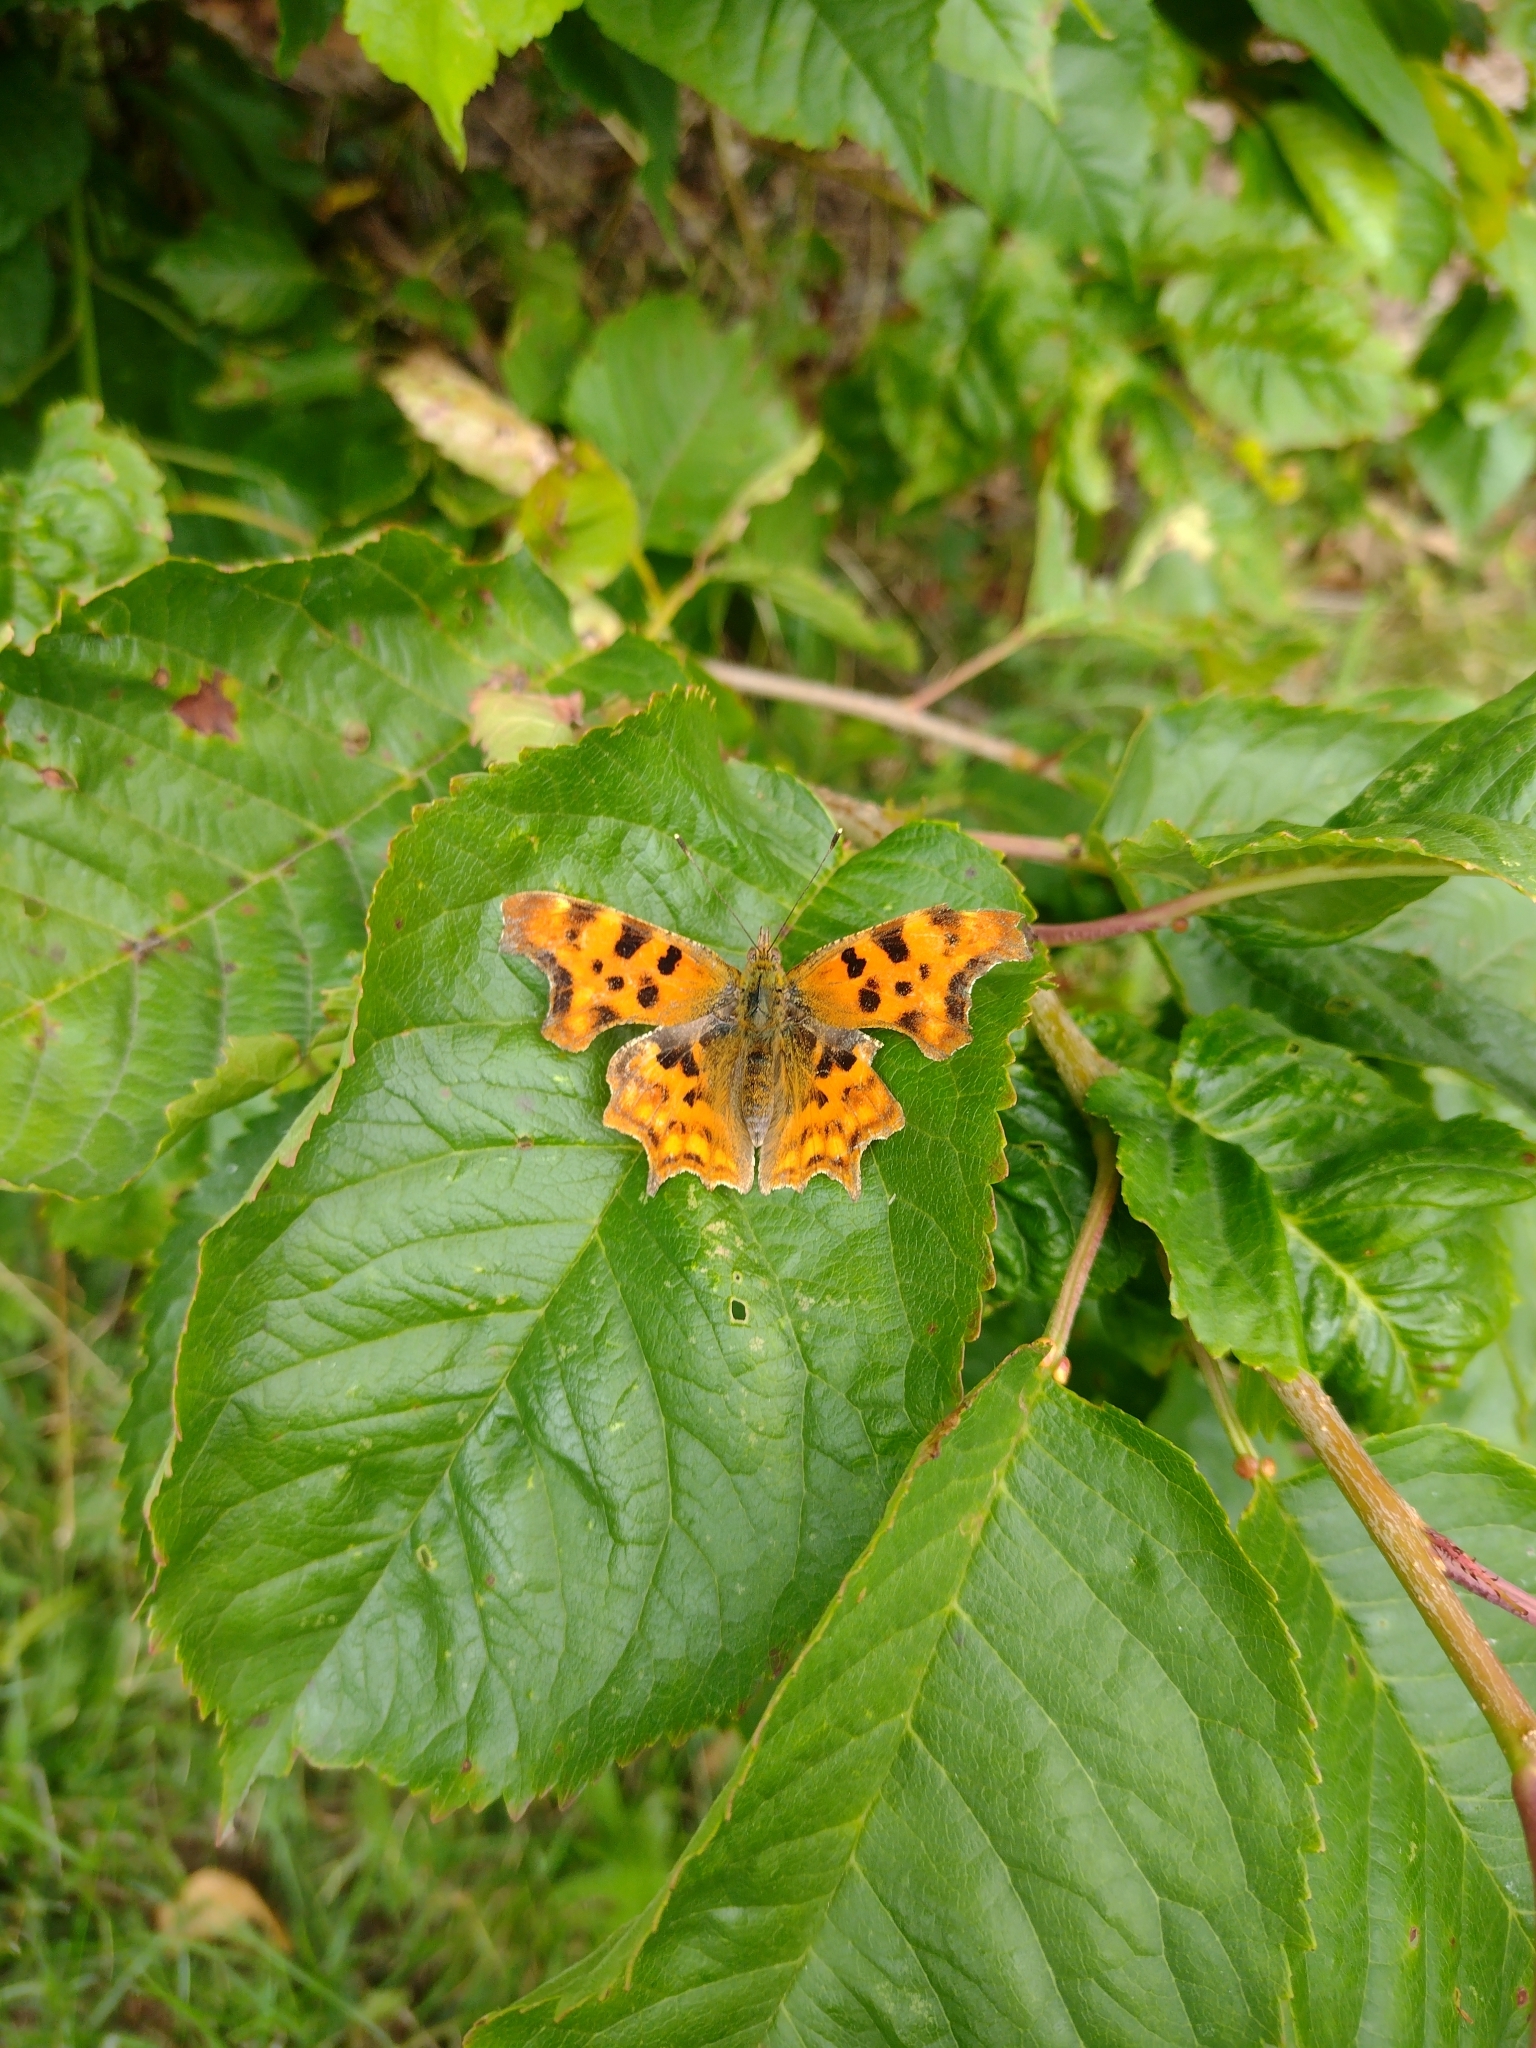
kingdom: Animalia
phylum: Arthropoda
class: Insecta
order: Lepidoptera
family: Nymphalidae
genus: Polygonia
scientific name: Polygonia c-album
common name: Comma
